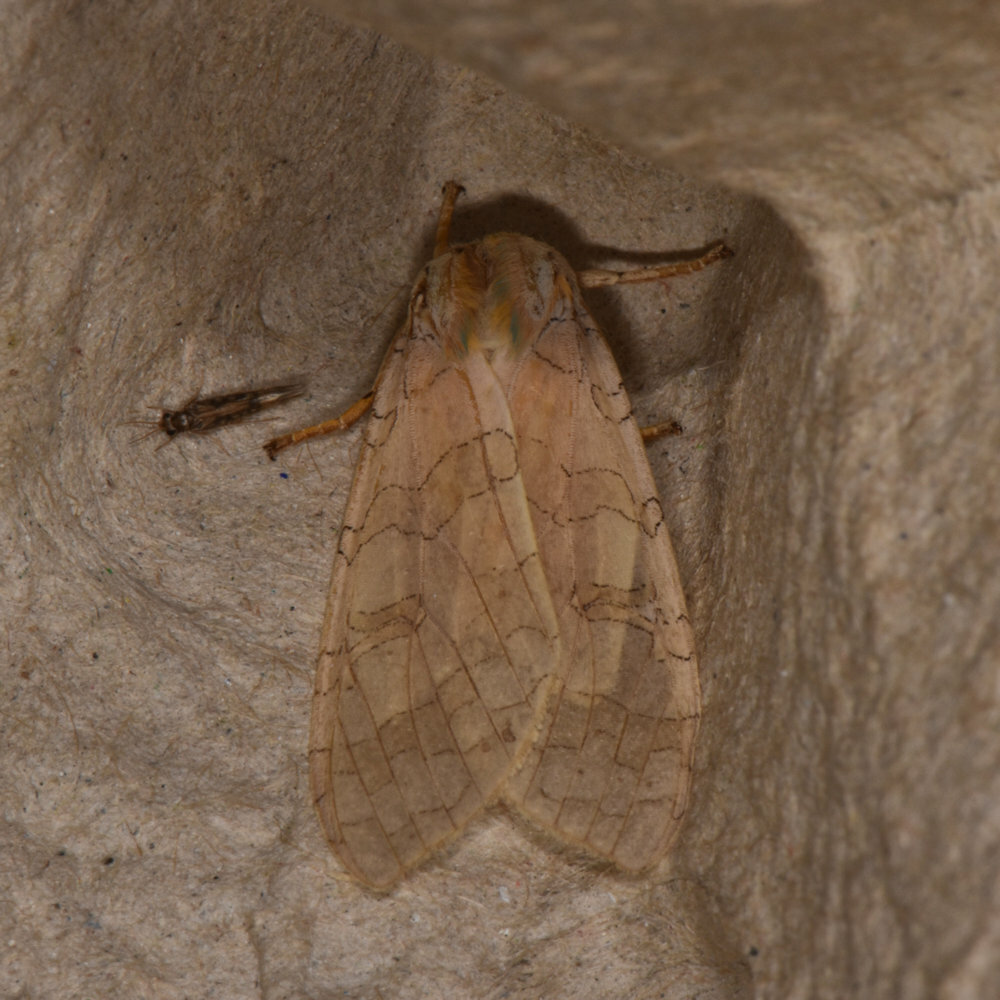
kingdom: Animalia
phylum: Arthropoda
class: Insecta
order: Lepidoptera
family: Erebidae
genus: Halysidota
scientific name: Halysidota tessellaris
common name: Banded tussock moth
